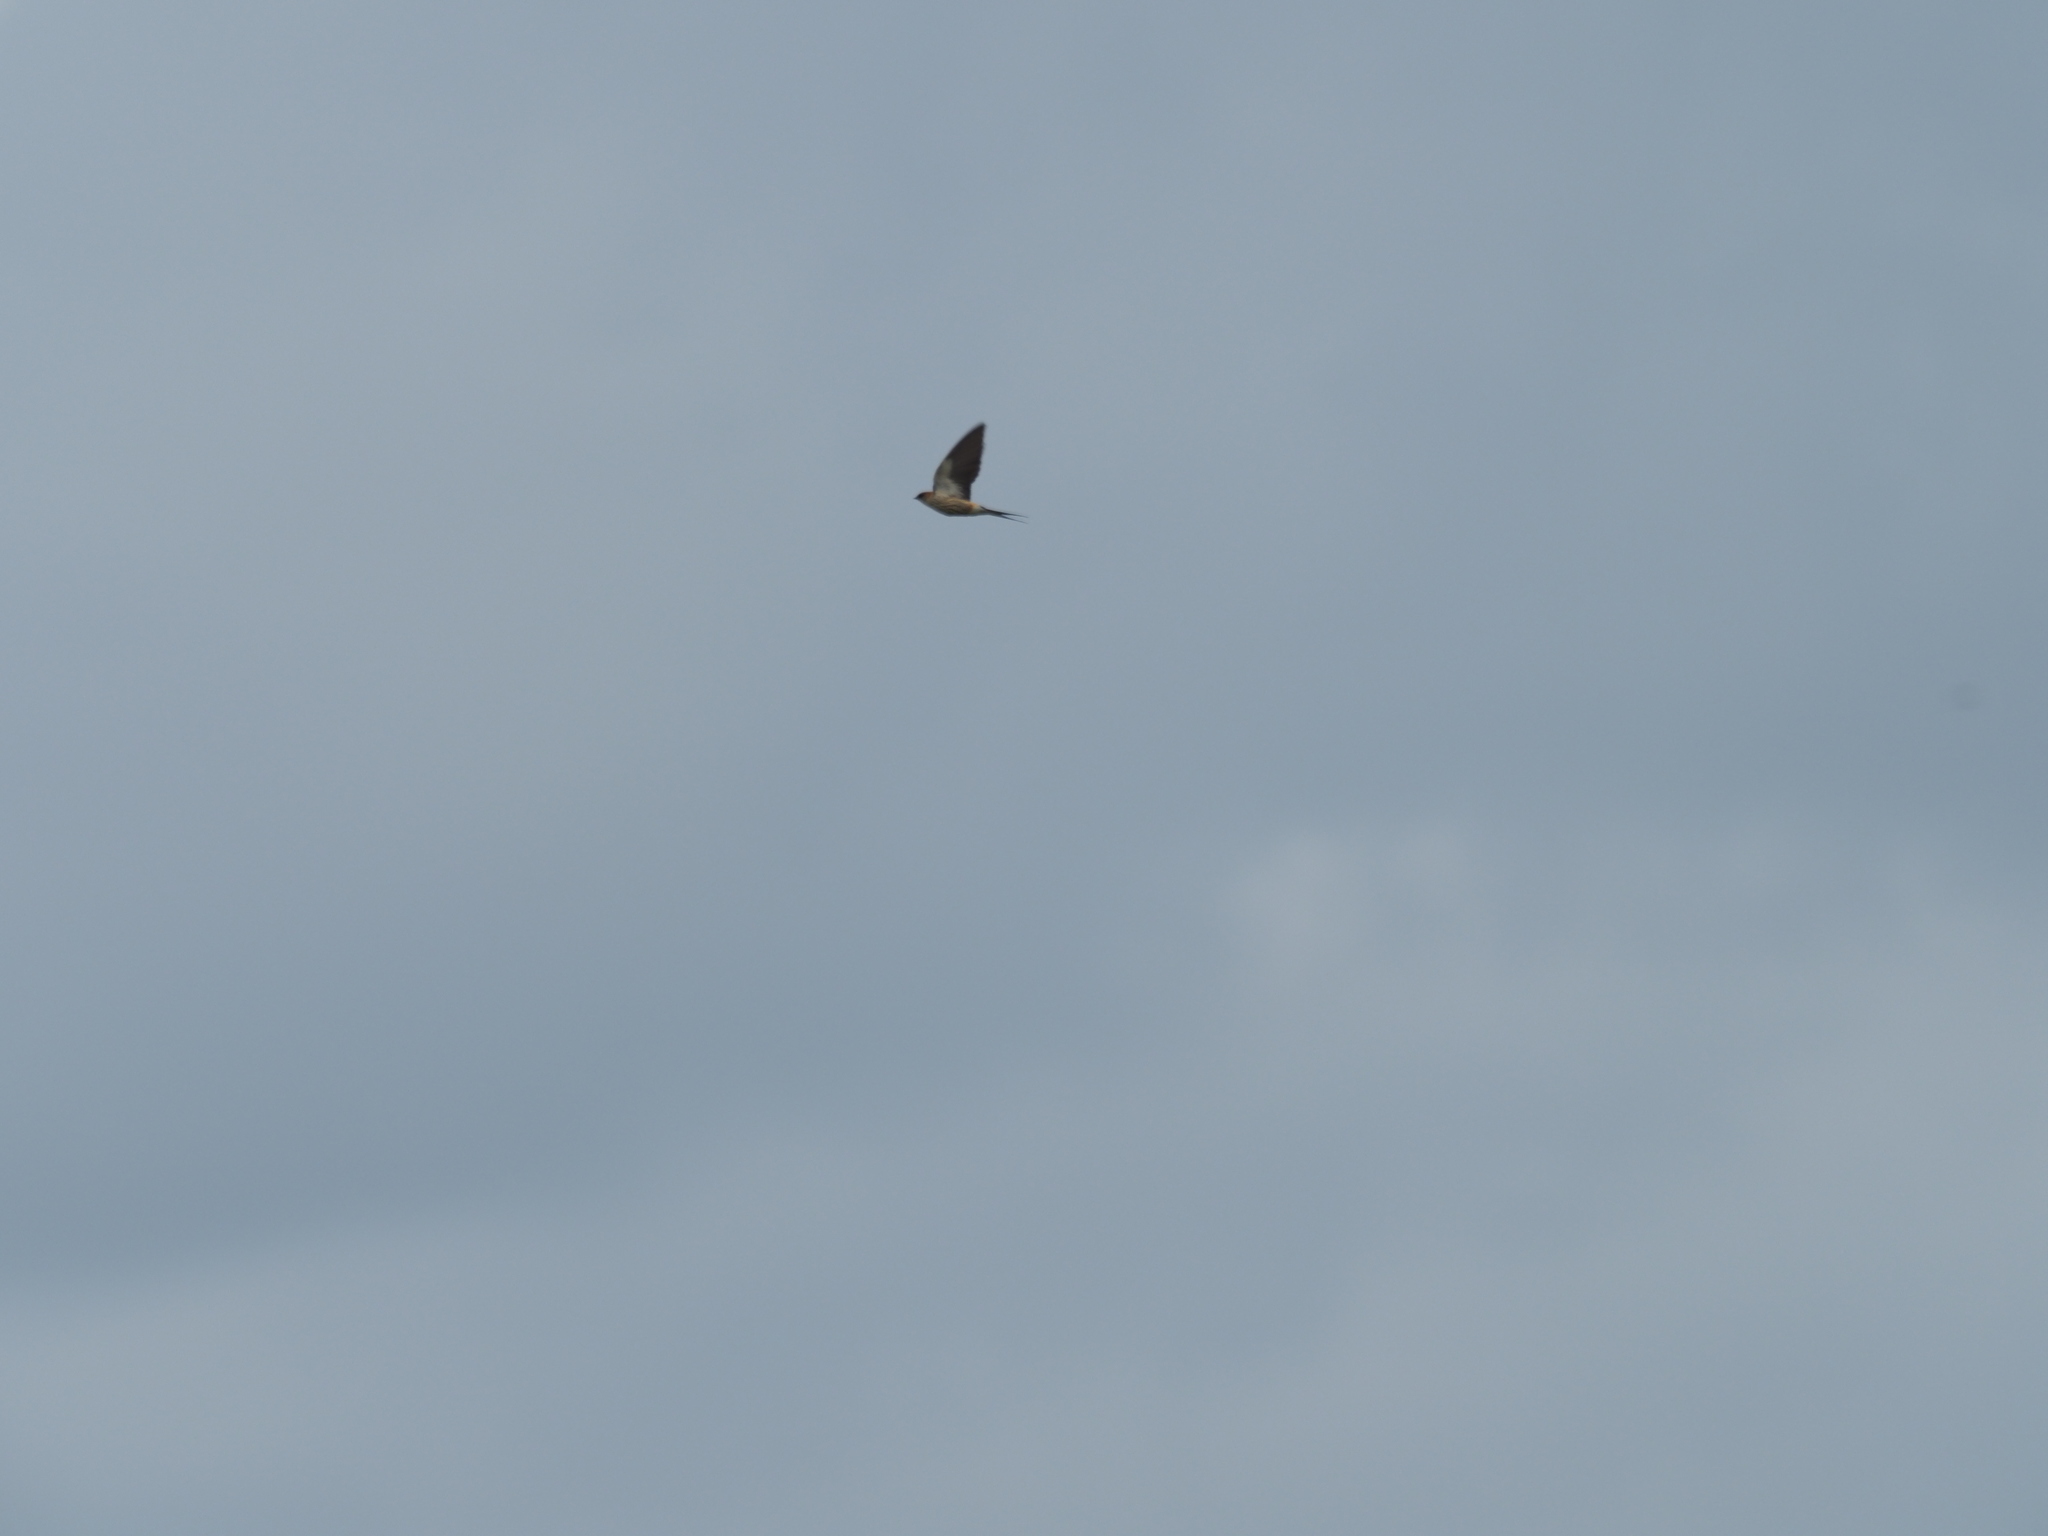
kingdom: Animalia
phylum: Chordata
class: Aves
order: Passeriformes
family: Hirundinidae
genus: Cecropis
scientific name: Cecropis abyssinica
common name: Lesser striped-swallow
